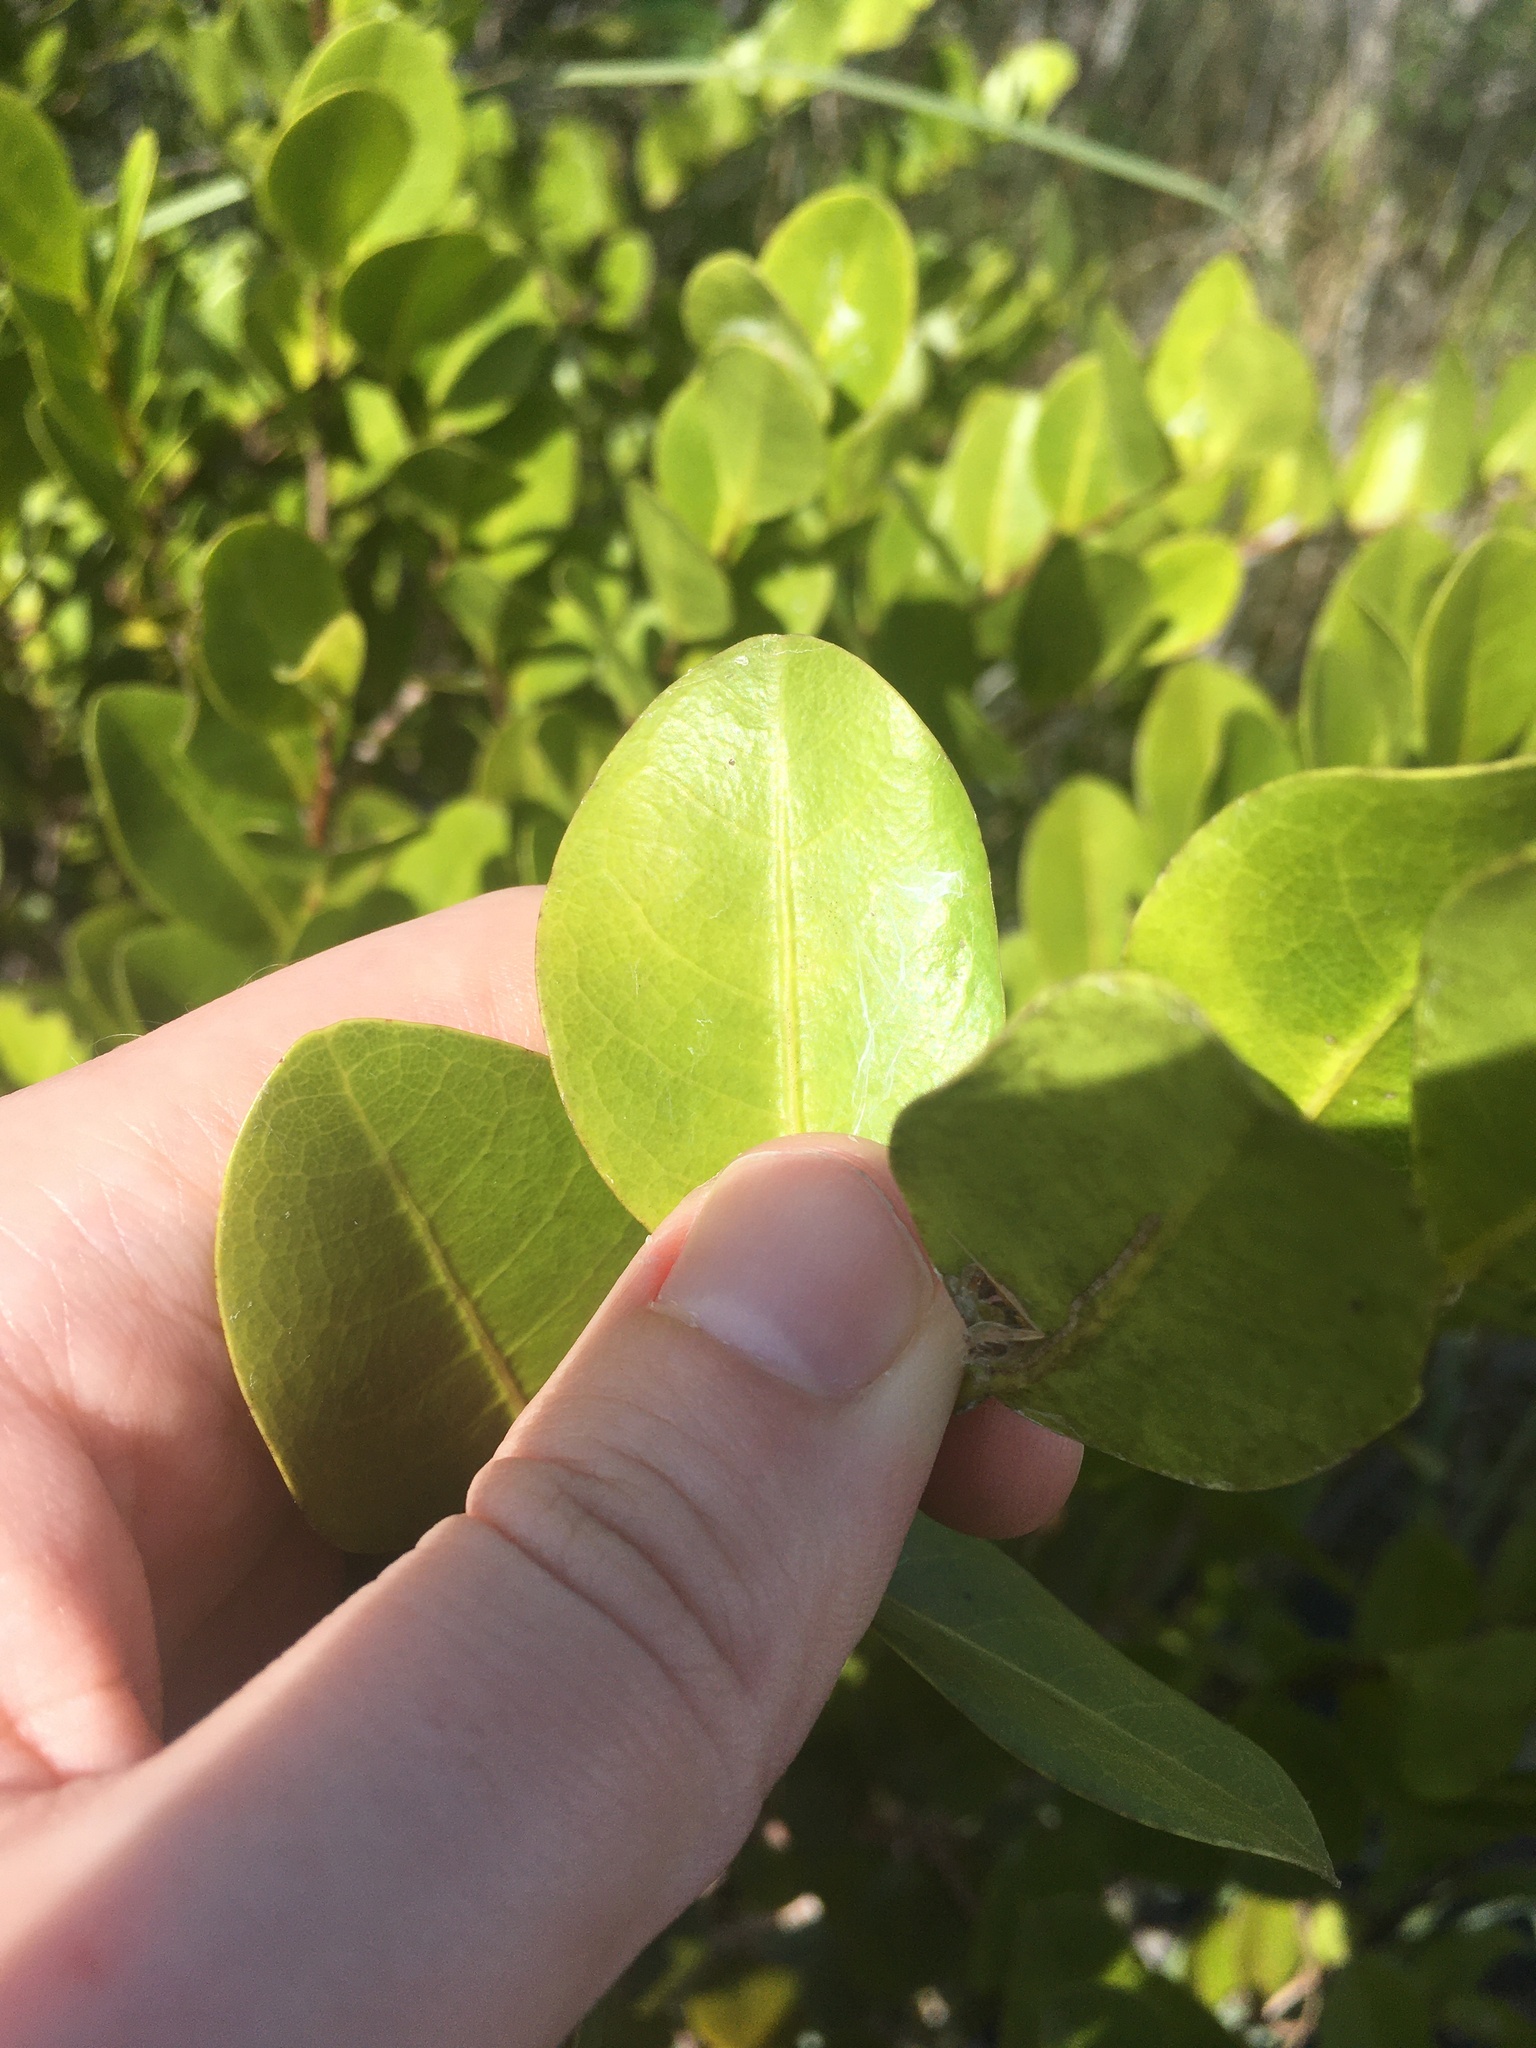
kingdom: Plantae
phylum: Tracheophyta
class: Magnoliopsida
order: Malpighiales
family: Chrysobalanaceae
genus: Chrysobalanus
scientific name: Chrysobalanus icaco
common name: Coco plum
